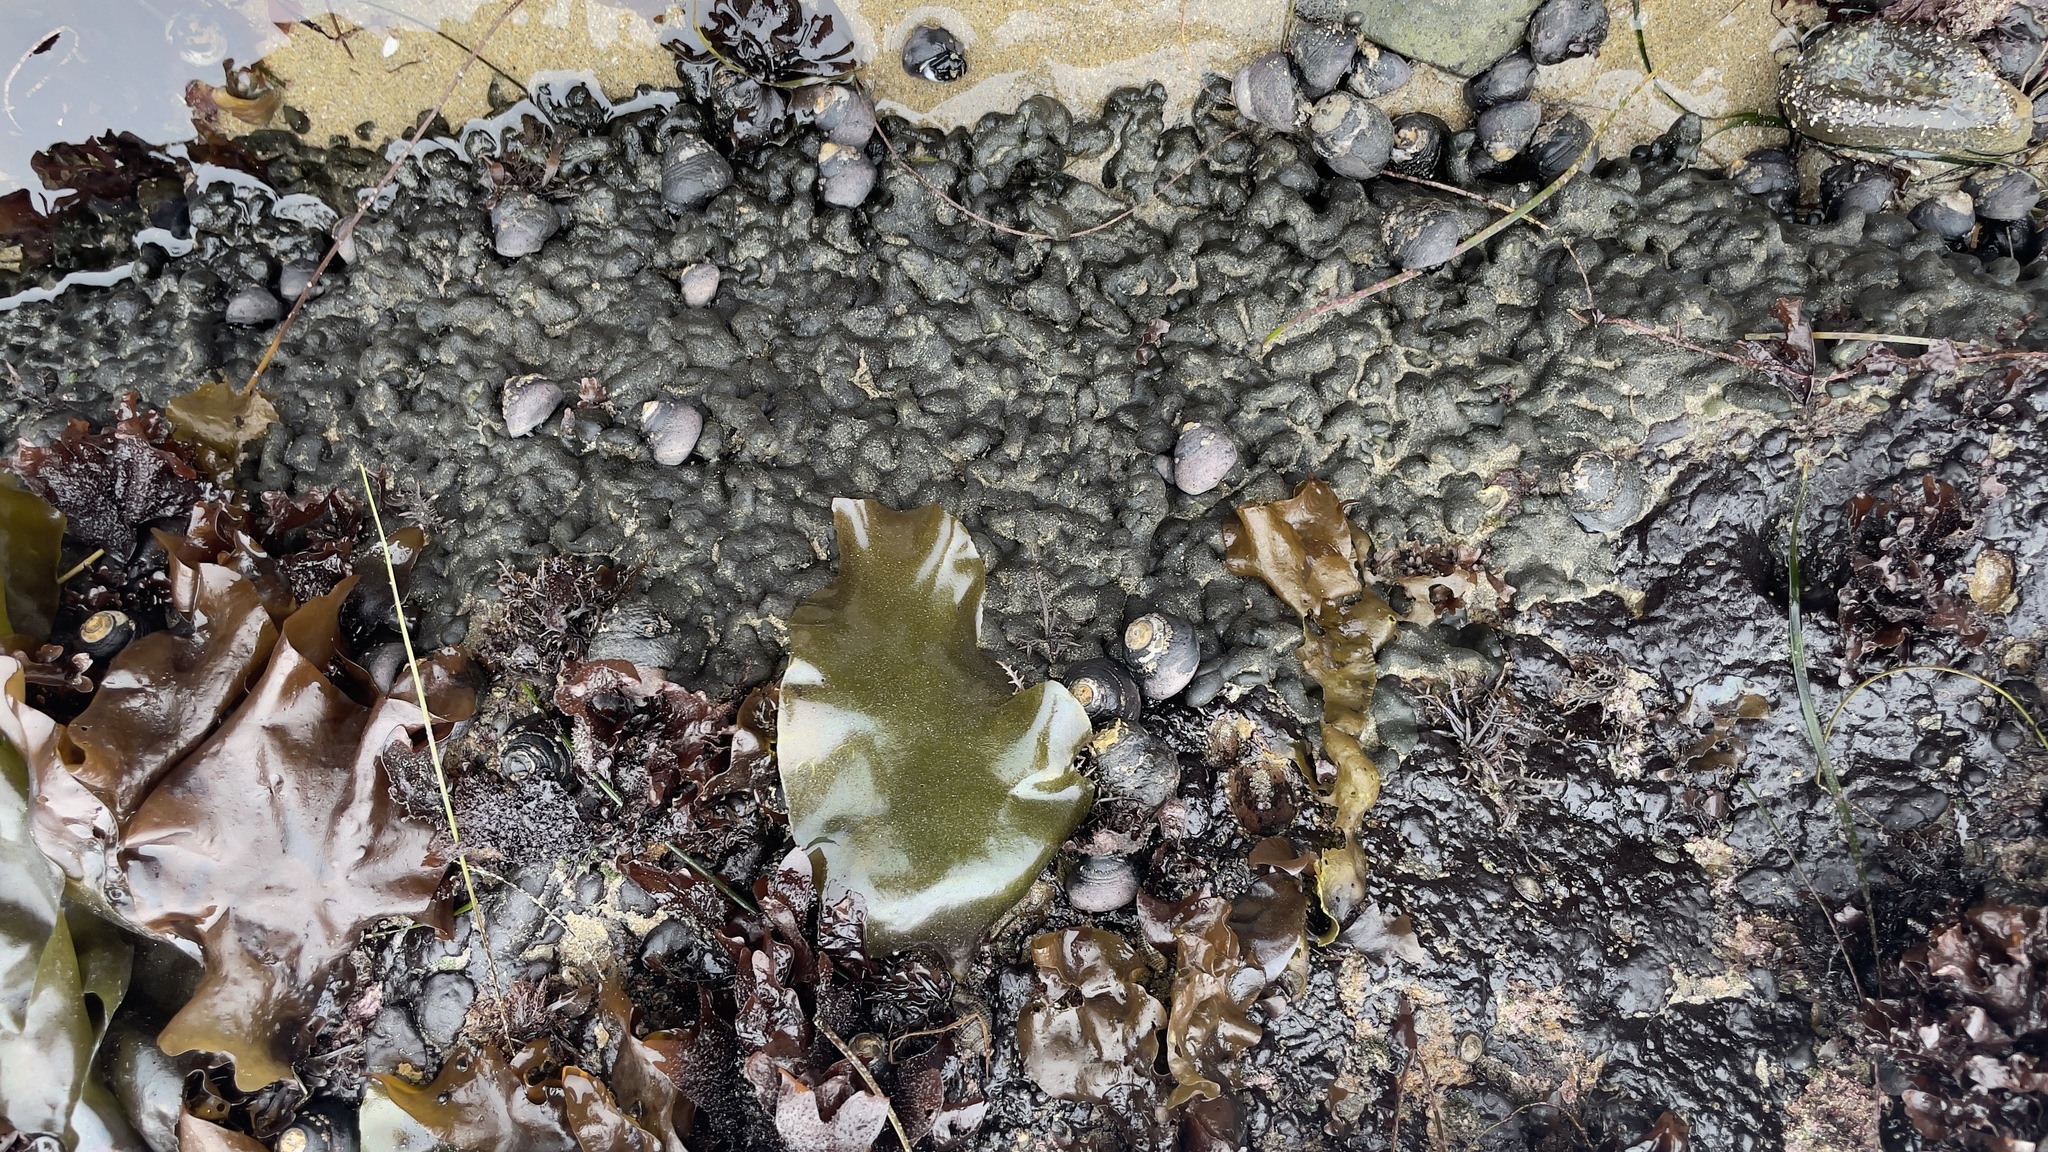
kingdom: Plantae
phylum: Chlorophyta
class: Ulvophyceae
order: Bryopsidales
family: Codiaceae
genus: Codium
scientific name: Codium setchellii
